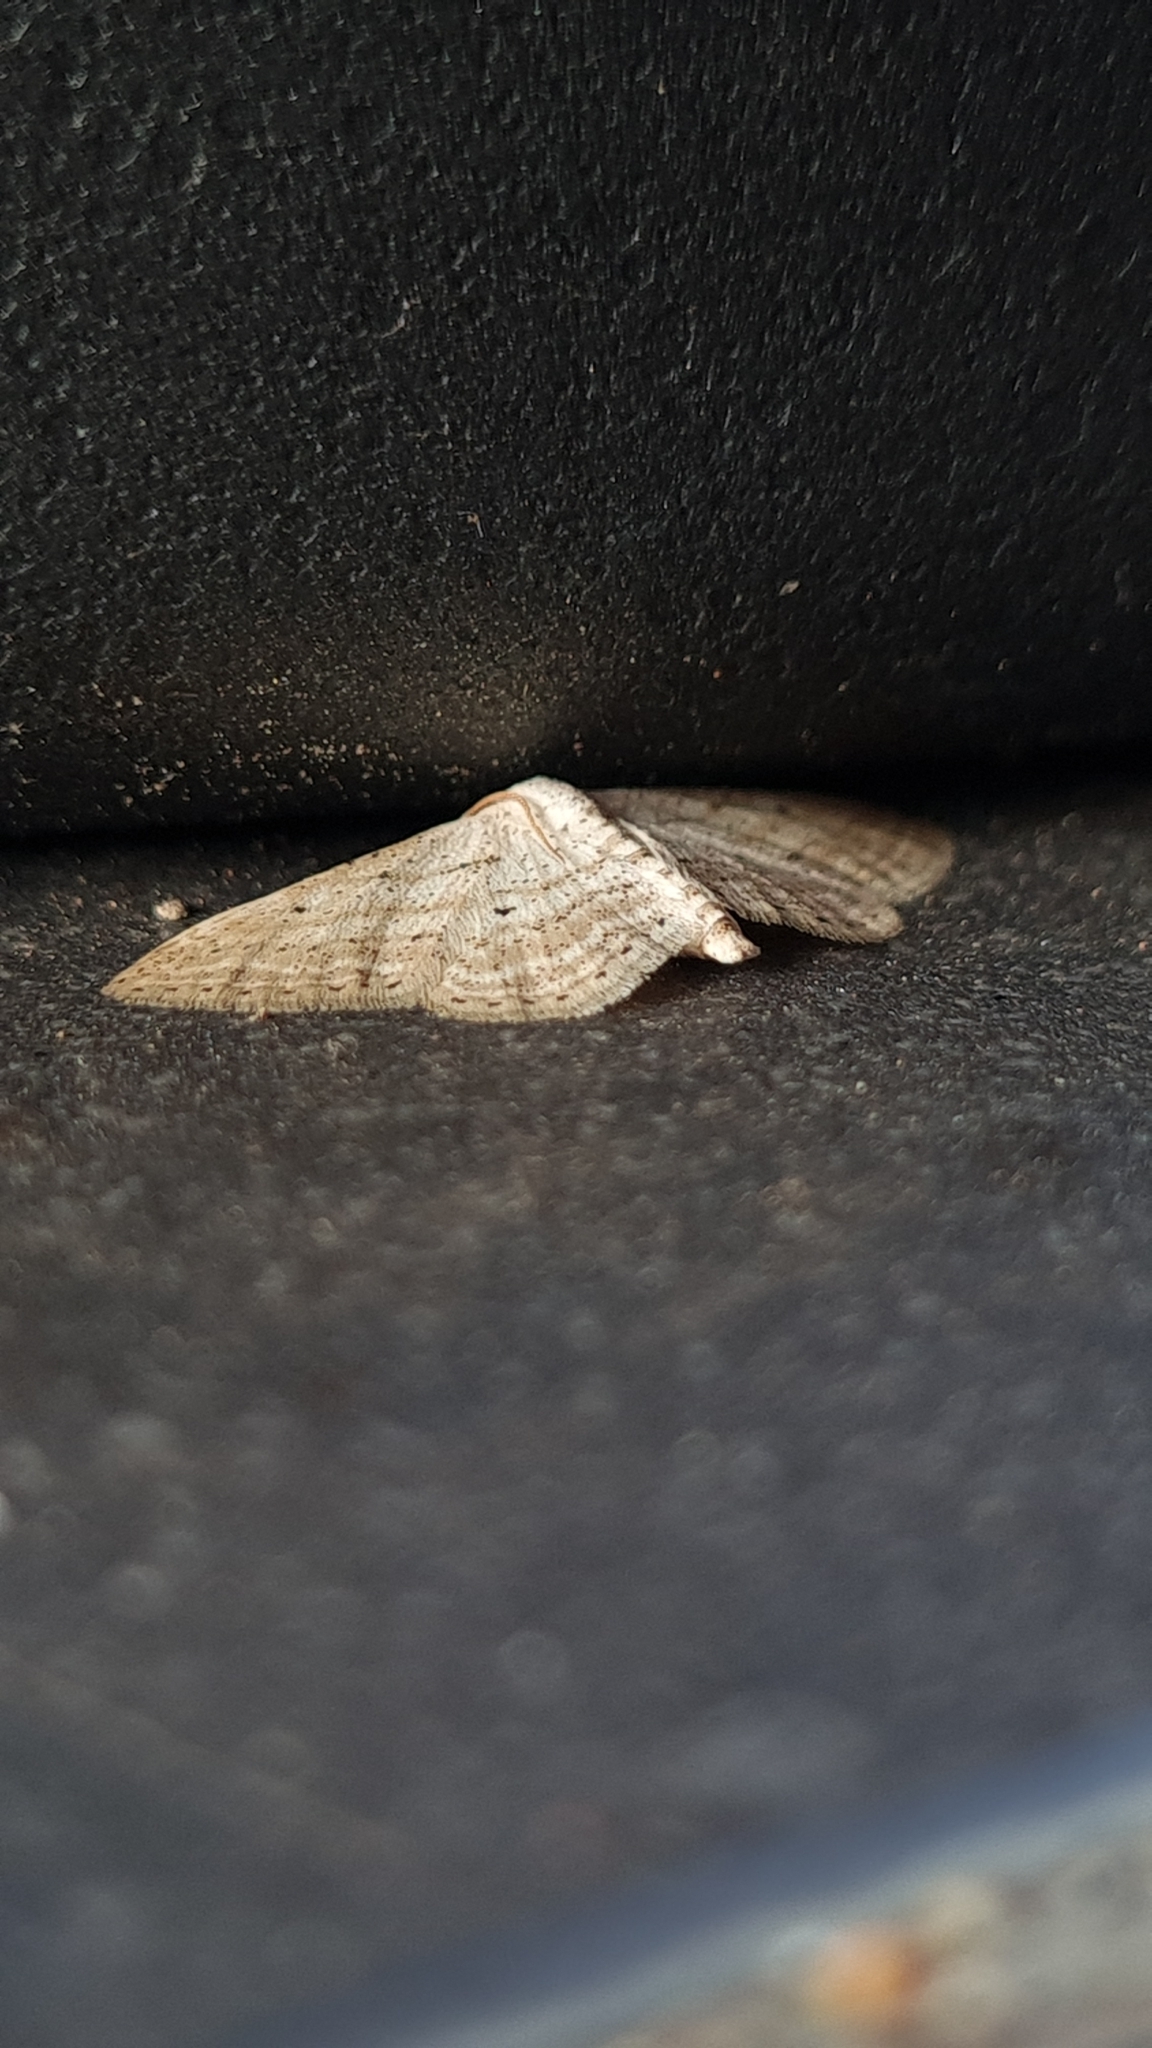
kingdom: Animalia
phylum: Arthropoda
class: Insecta
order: Lepidoptera
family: Geometridae
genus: Idaea
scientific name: Idaea elongaria
